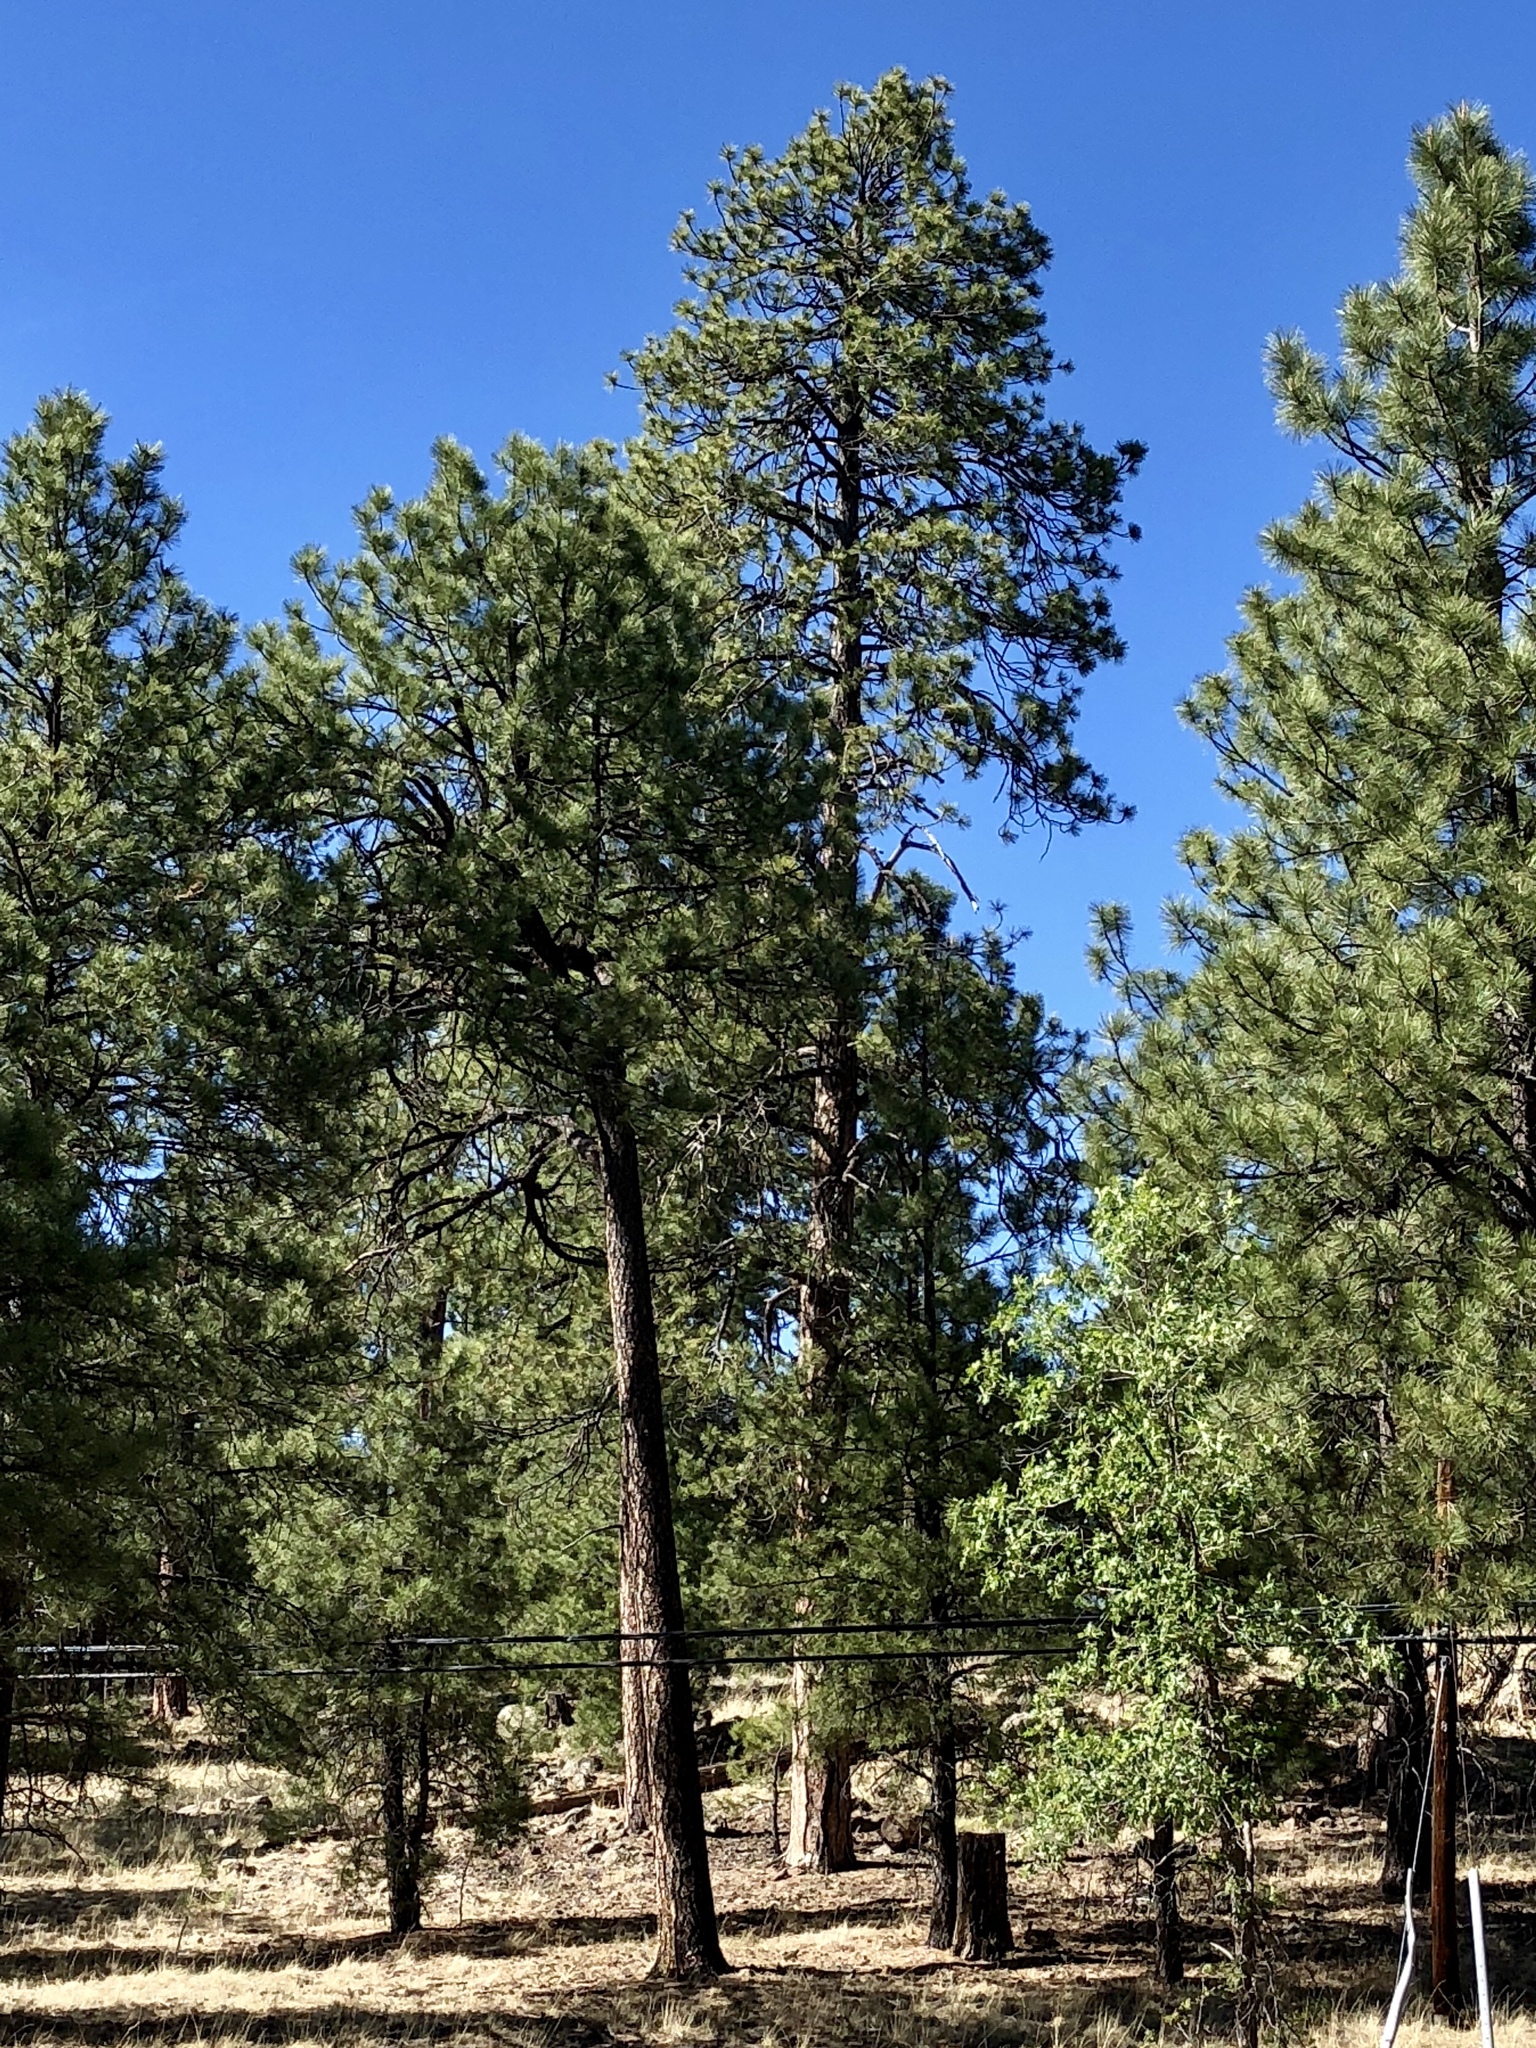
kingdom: Plantae
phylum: Tracheophyta
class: Pinopsida
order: Pinales
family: Pinaceae
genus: Pinus
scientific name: Pinus ponderosa
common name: Western yellow-pine
